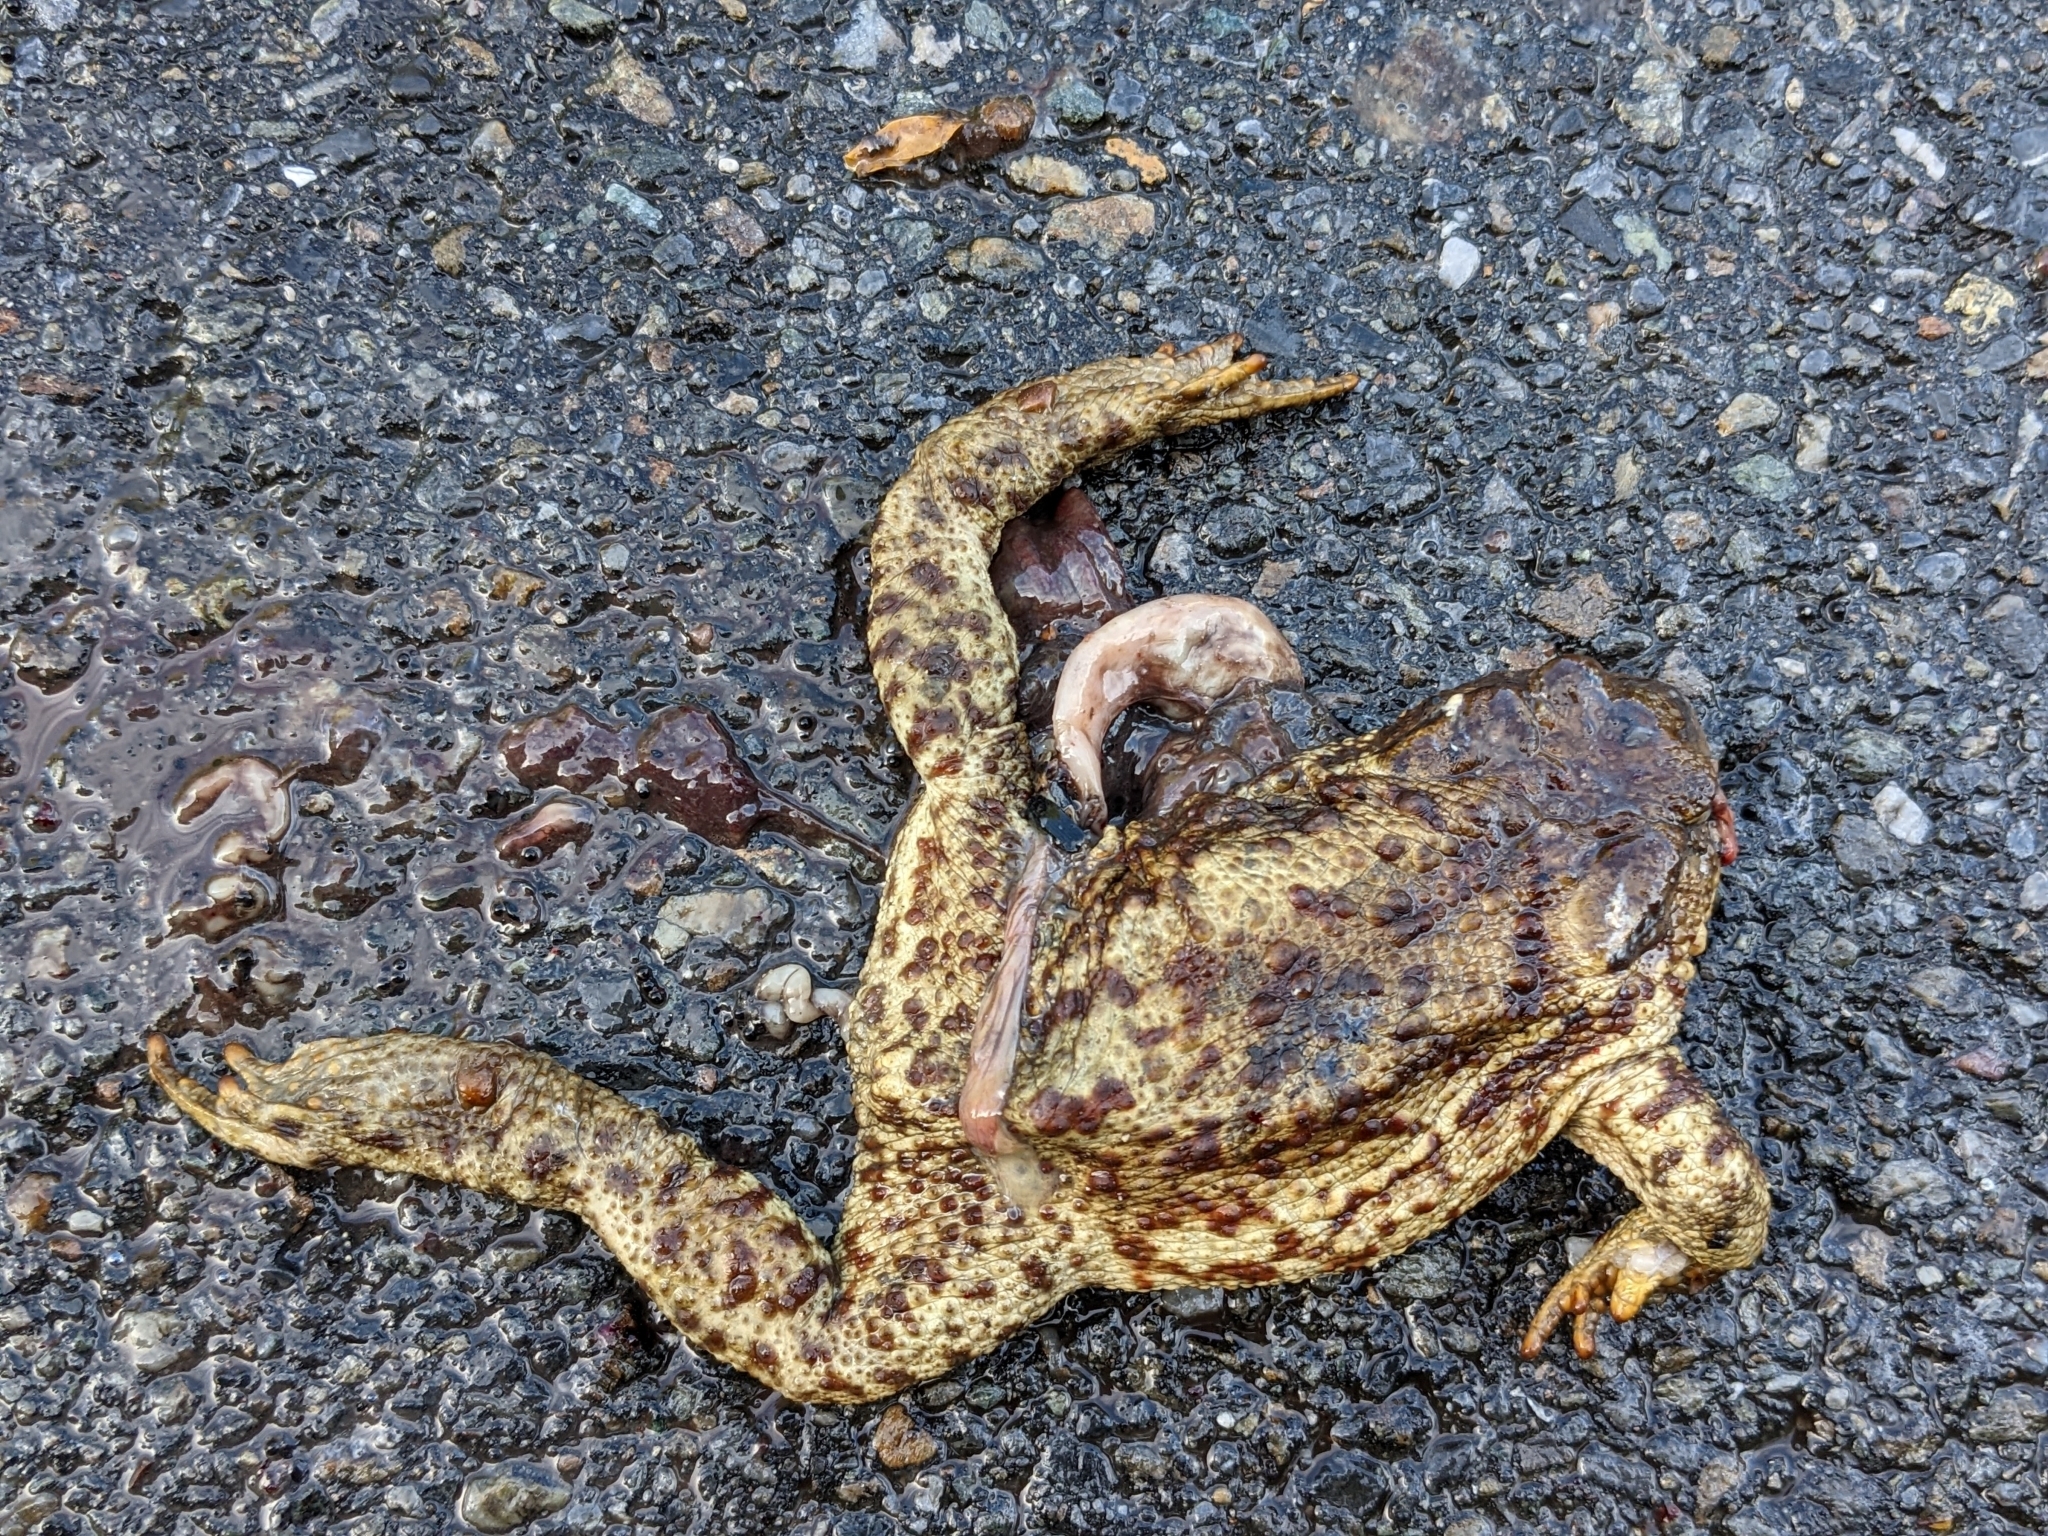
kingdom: Animalia
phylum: Chordata
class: Amphibia
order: Anura
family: Bufonidae
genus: Bufo
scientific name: Bufo bufo
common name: Common toad
